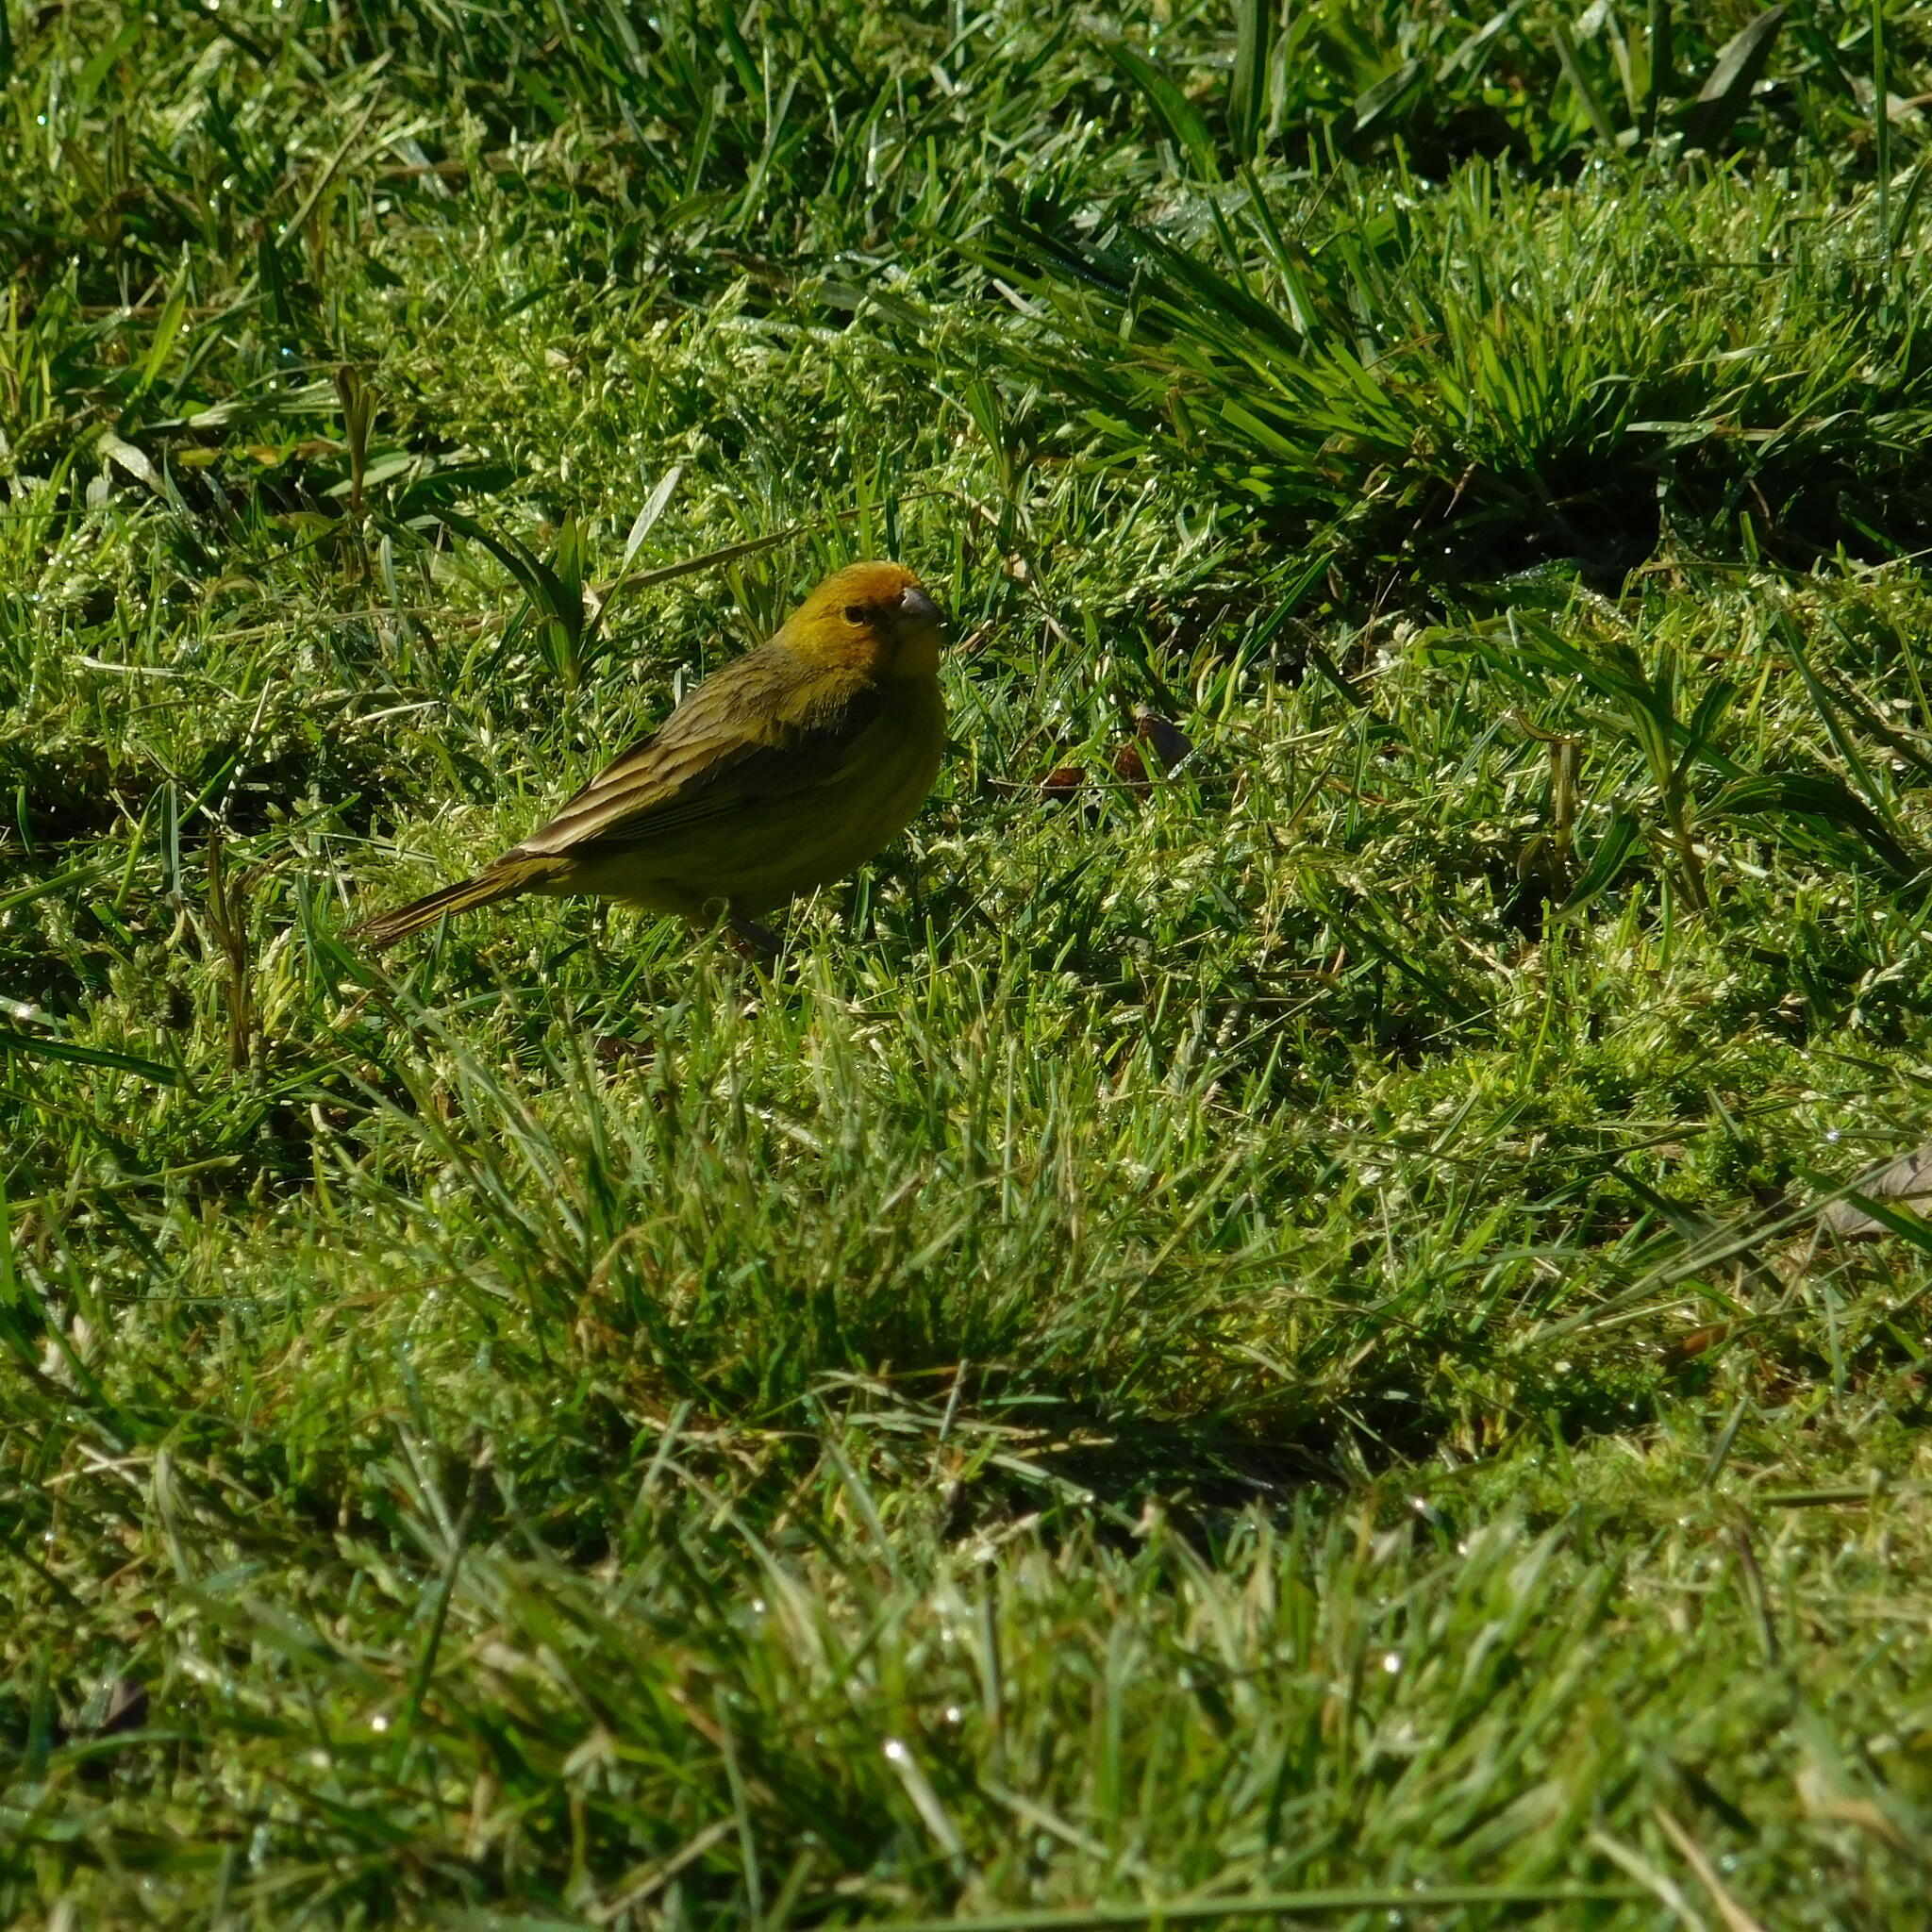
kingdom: Animalia
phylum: Chordata
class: Aves
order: Passeriformes
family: Thraupidae
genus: Sicalis
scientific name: Sicalis flaveola
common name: Saffron finch
